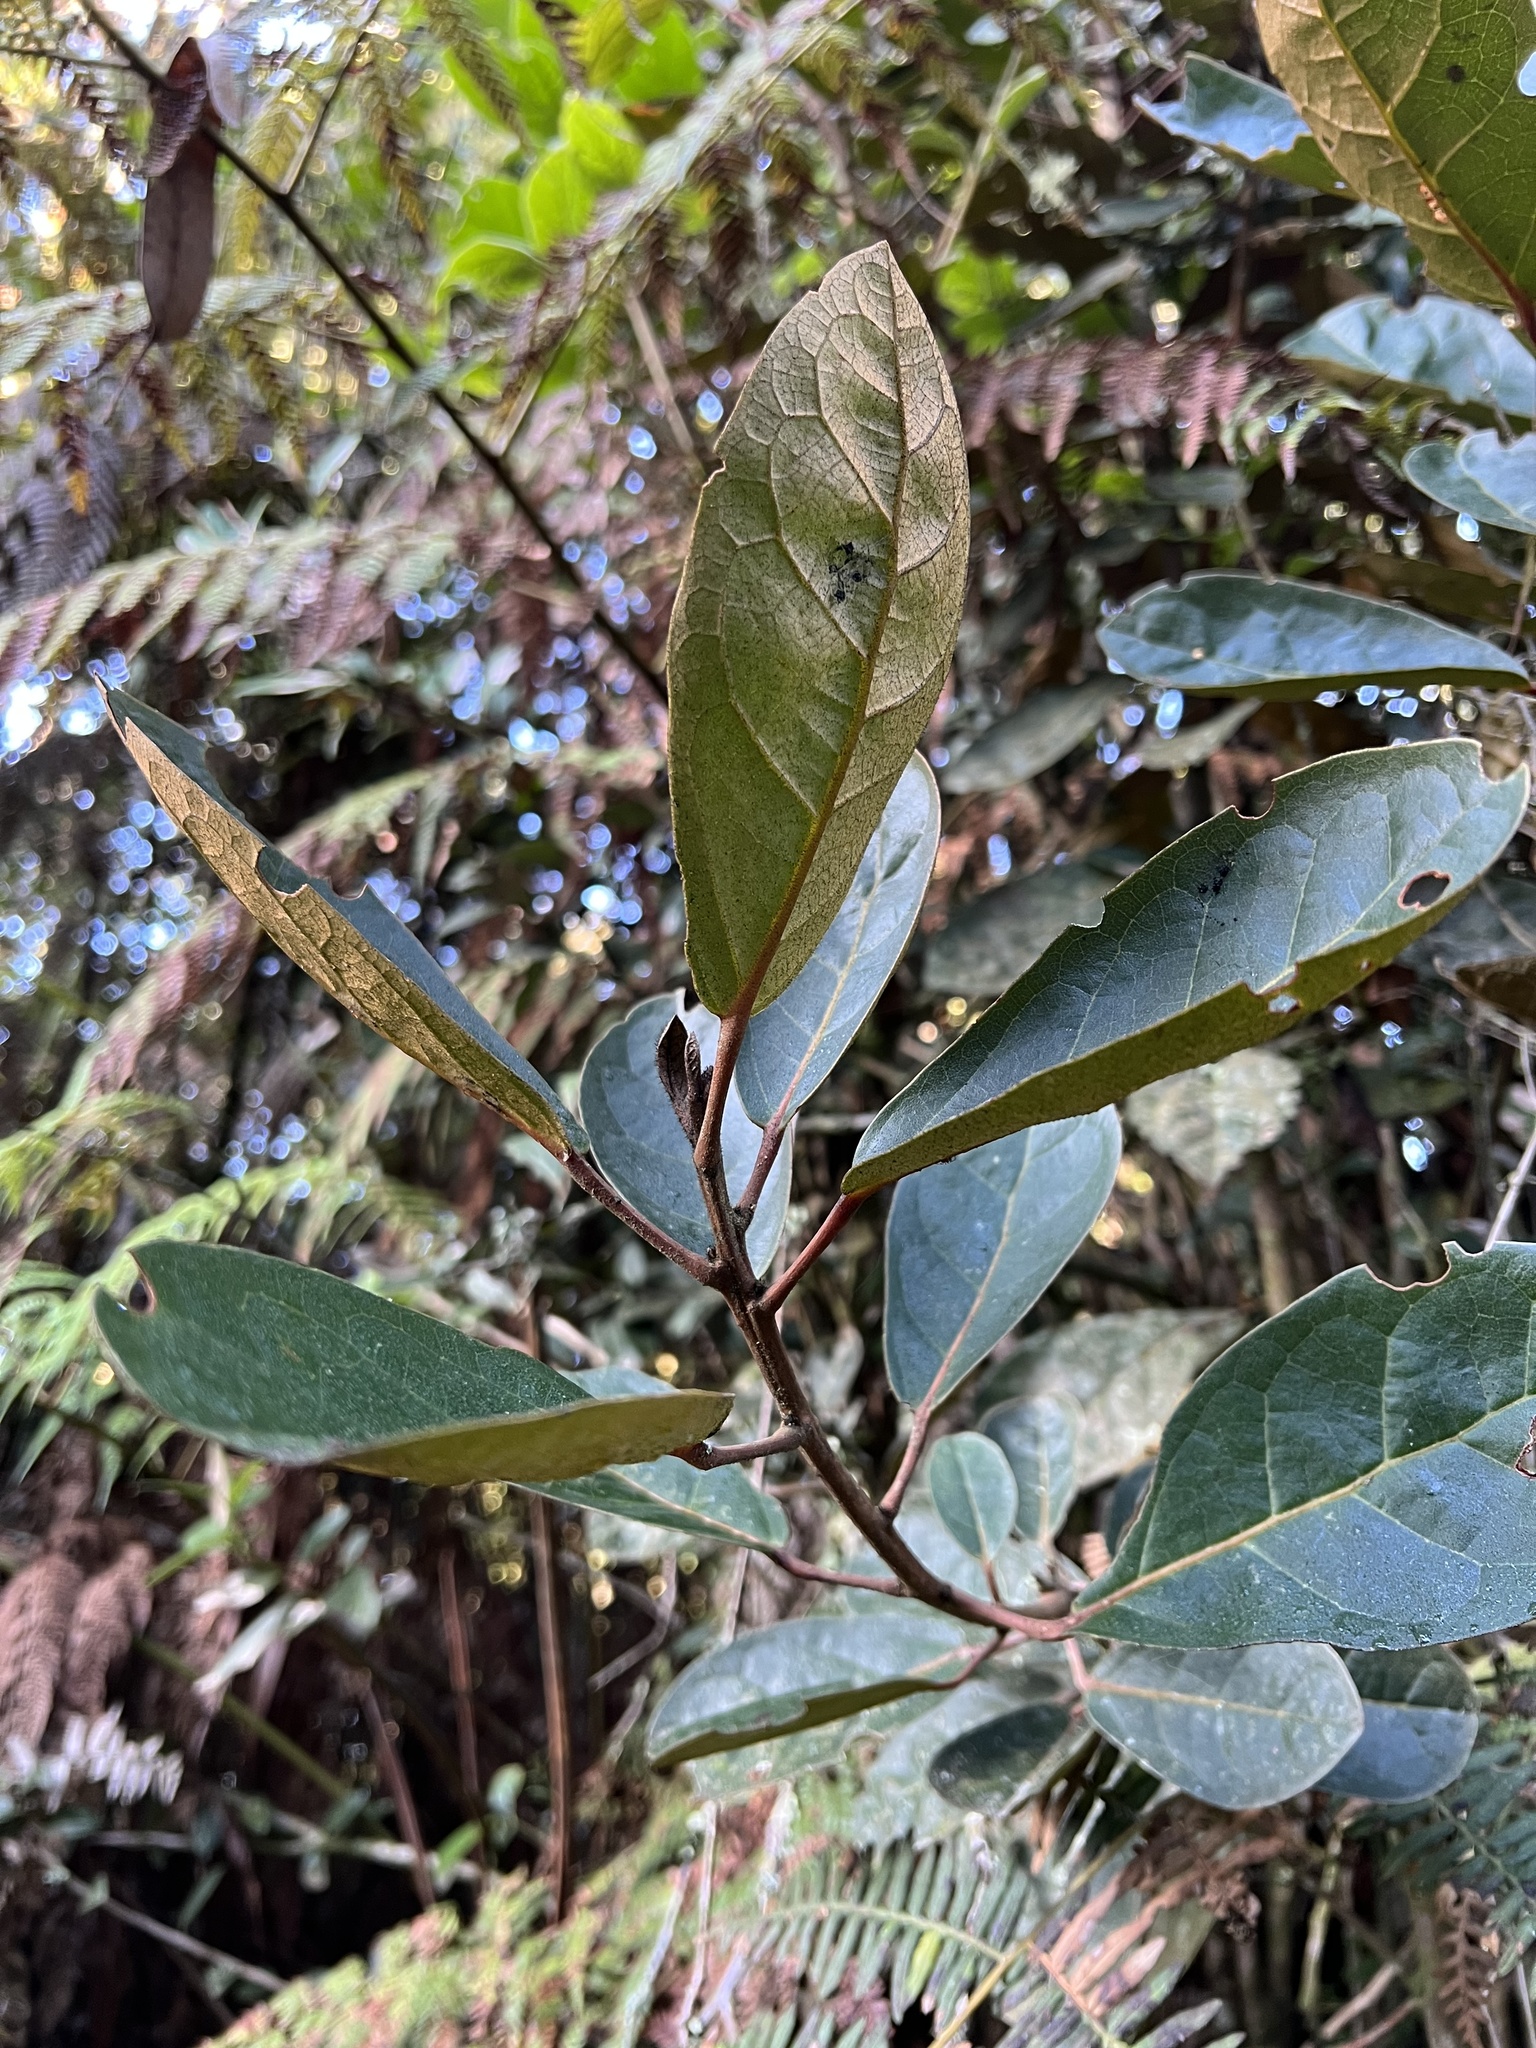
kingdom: Plantae
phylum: Tracheophyta
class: Magnoliopsida
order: Malpighiales
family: Phyllanthaceae
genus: Hieronyma
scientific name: Hieronyma rufa
